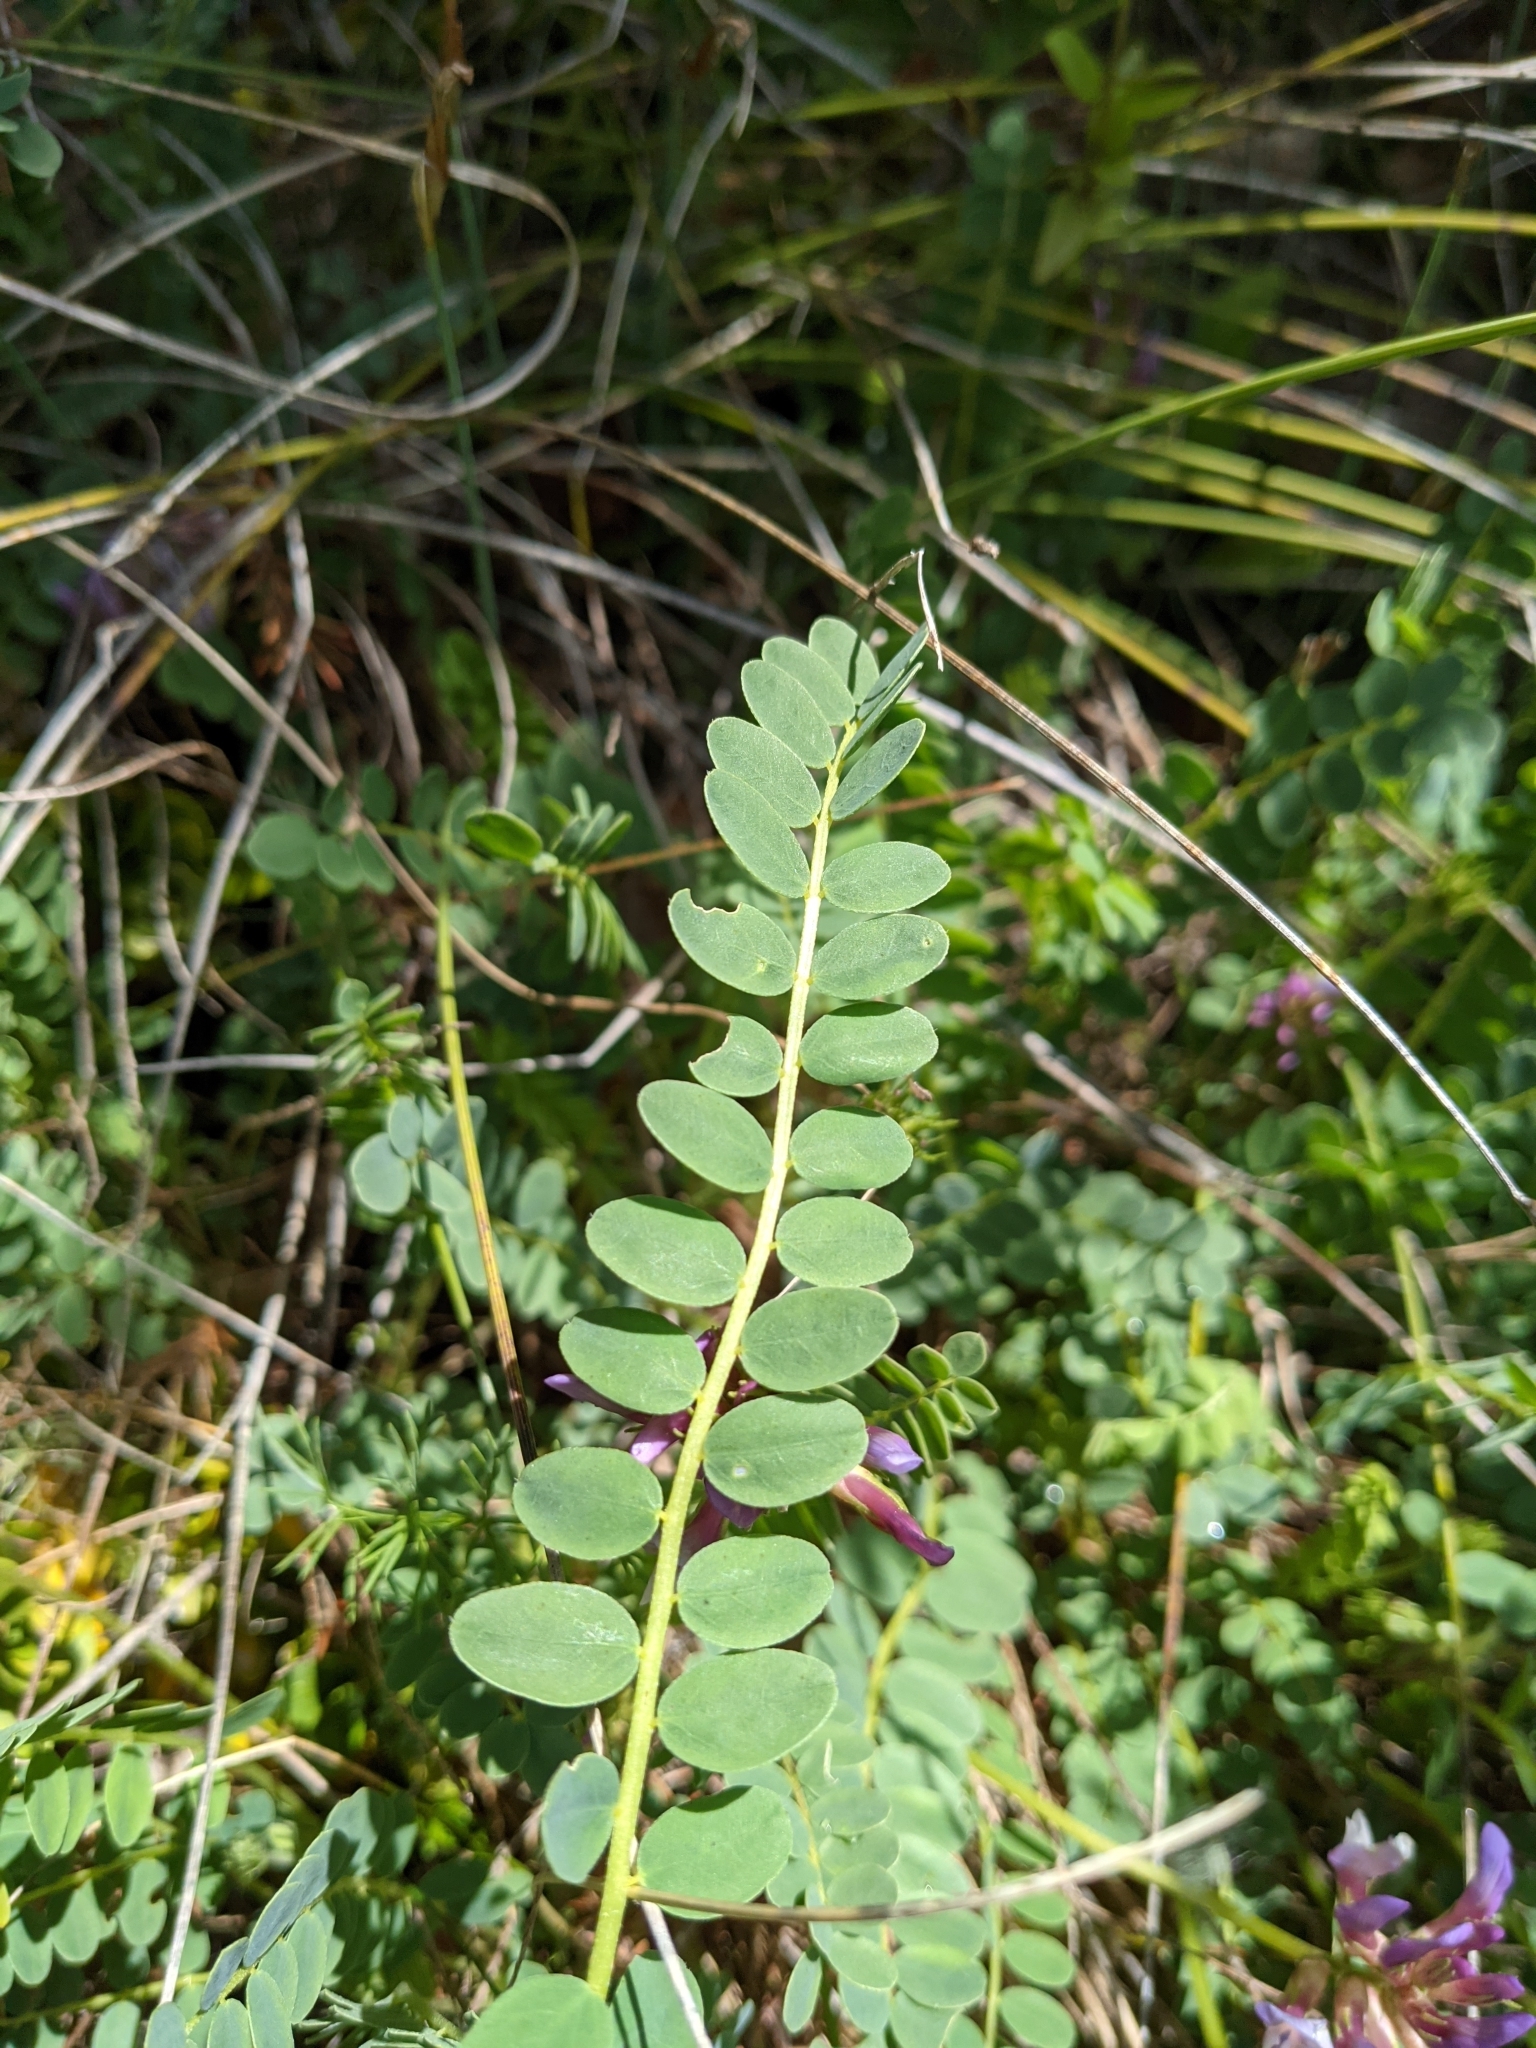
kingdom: Plantae
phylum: Tracheophyta
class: Magnoliopsida
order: Fabales
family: Fabaceae
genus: Astragalus
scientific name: Astragalus monspessulanus
